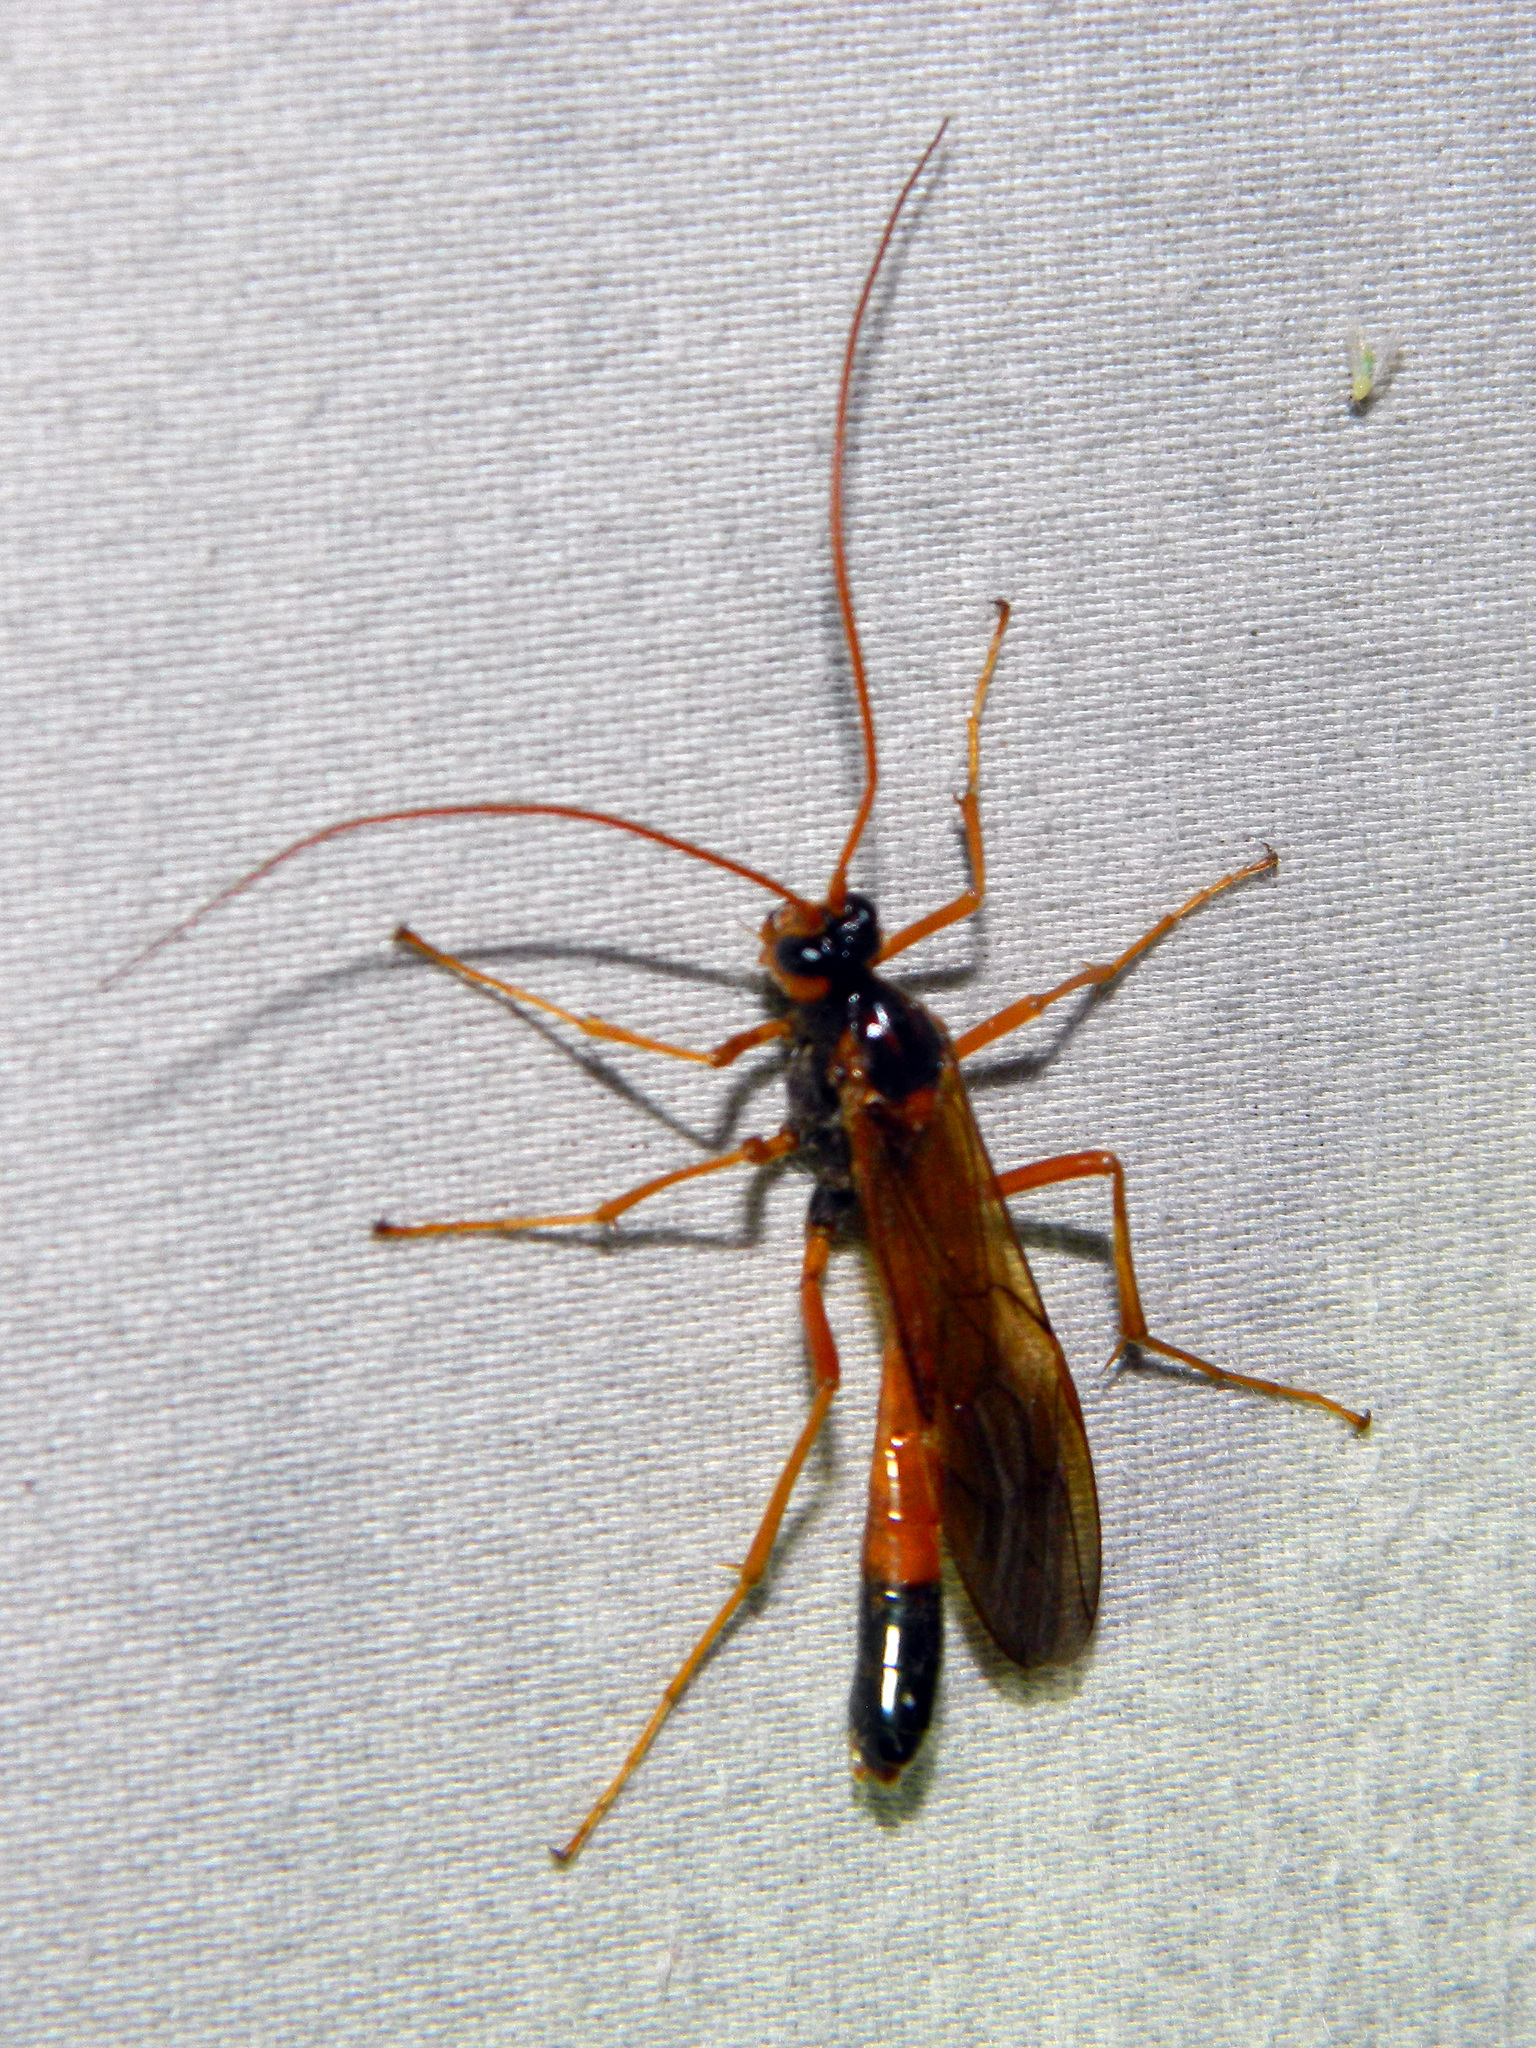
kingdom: Animalia
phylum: Arthropoda
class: Insecta
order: Hymenoptera
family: Ichneumonidae
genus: Opheltes
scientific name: Opheltes glaucopterus
